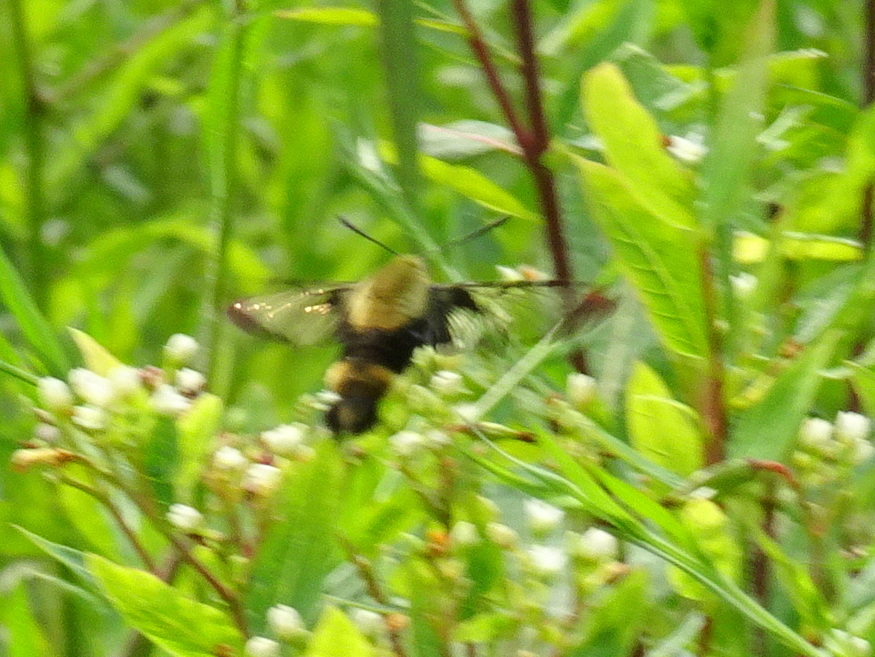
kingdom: Animalia
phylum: Arthropoda
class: Insecta
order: Lepidoptera
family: Sphingidae
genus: Hemaris
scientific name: Hemaris diffinis
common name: Bumblebee moth
